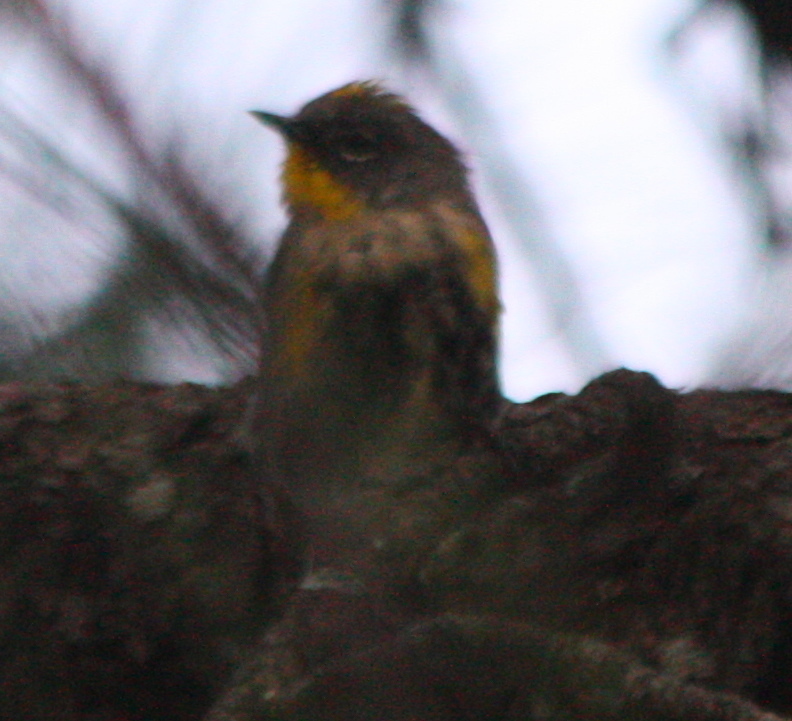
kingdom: Animalia
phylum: Chordata
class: Aves
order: Passeriformes
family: Parulidae
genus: Setophaga
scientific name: Setophaga coronata
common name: Myrtle warbler
